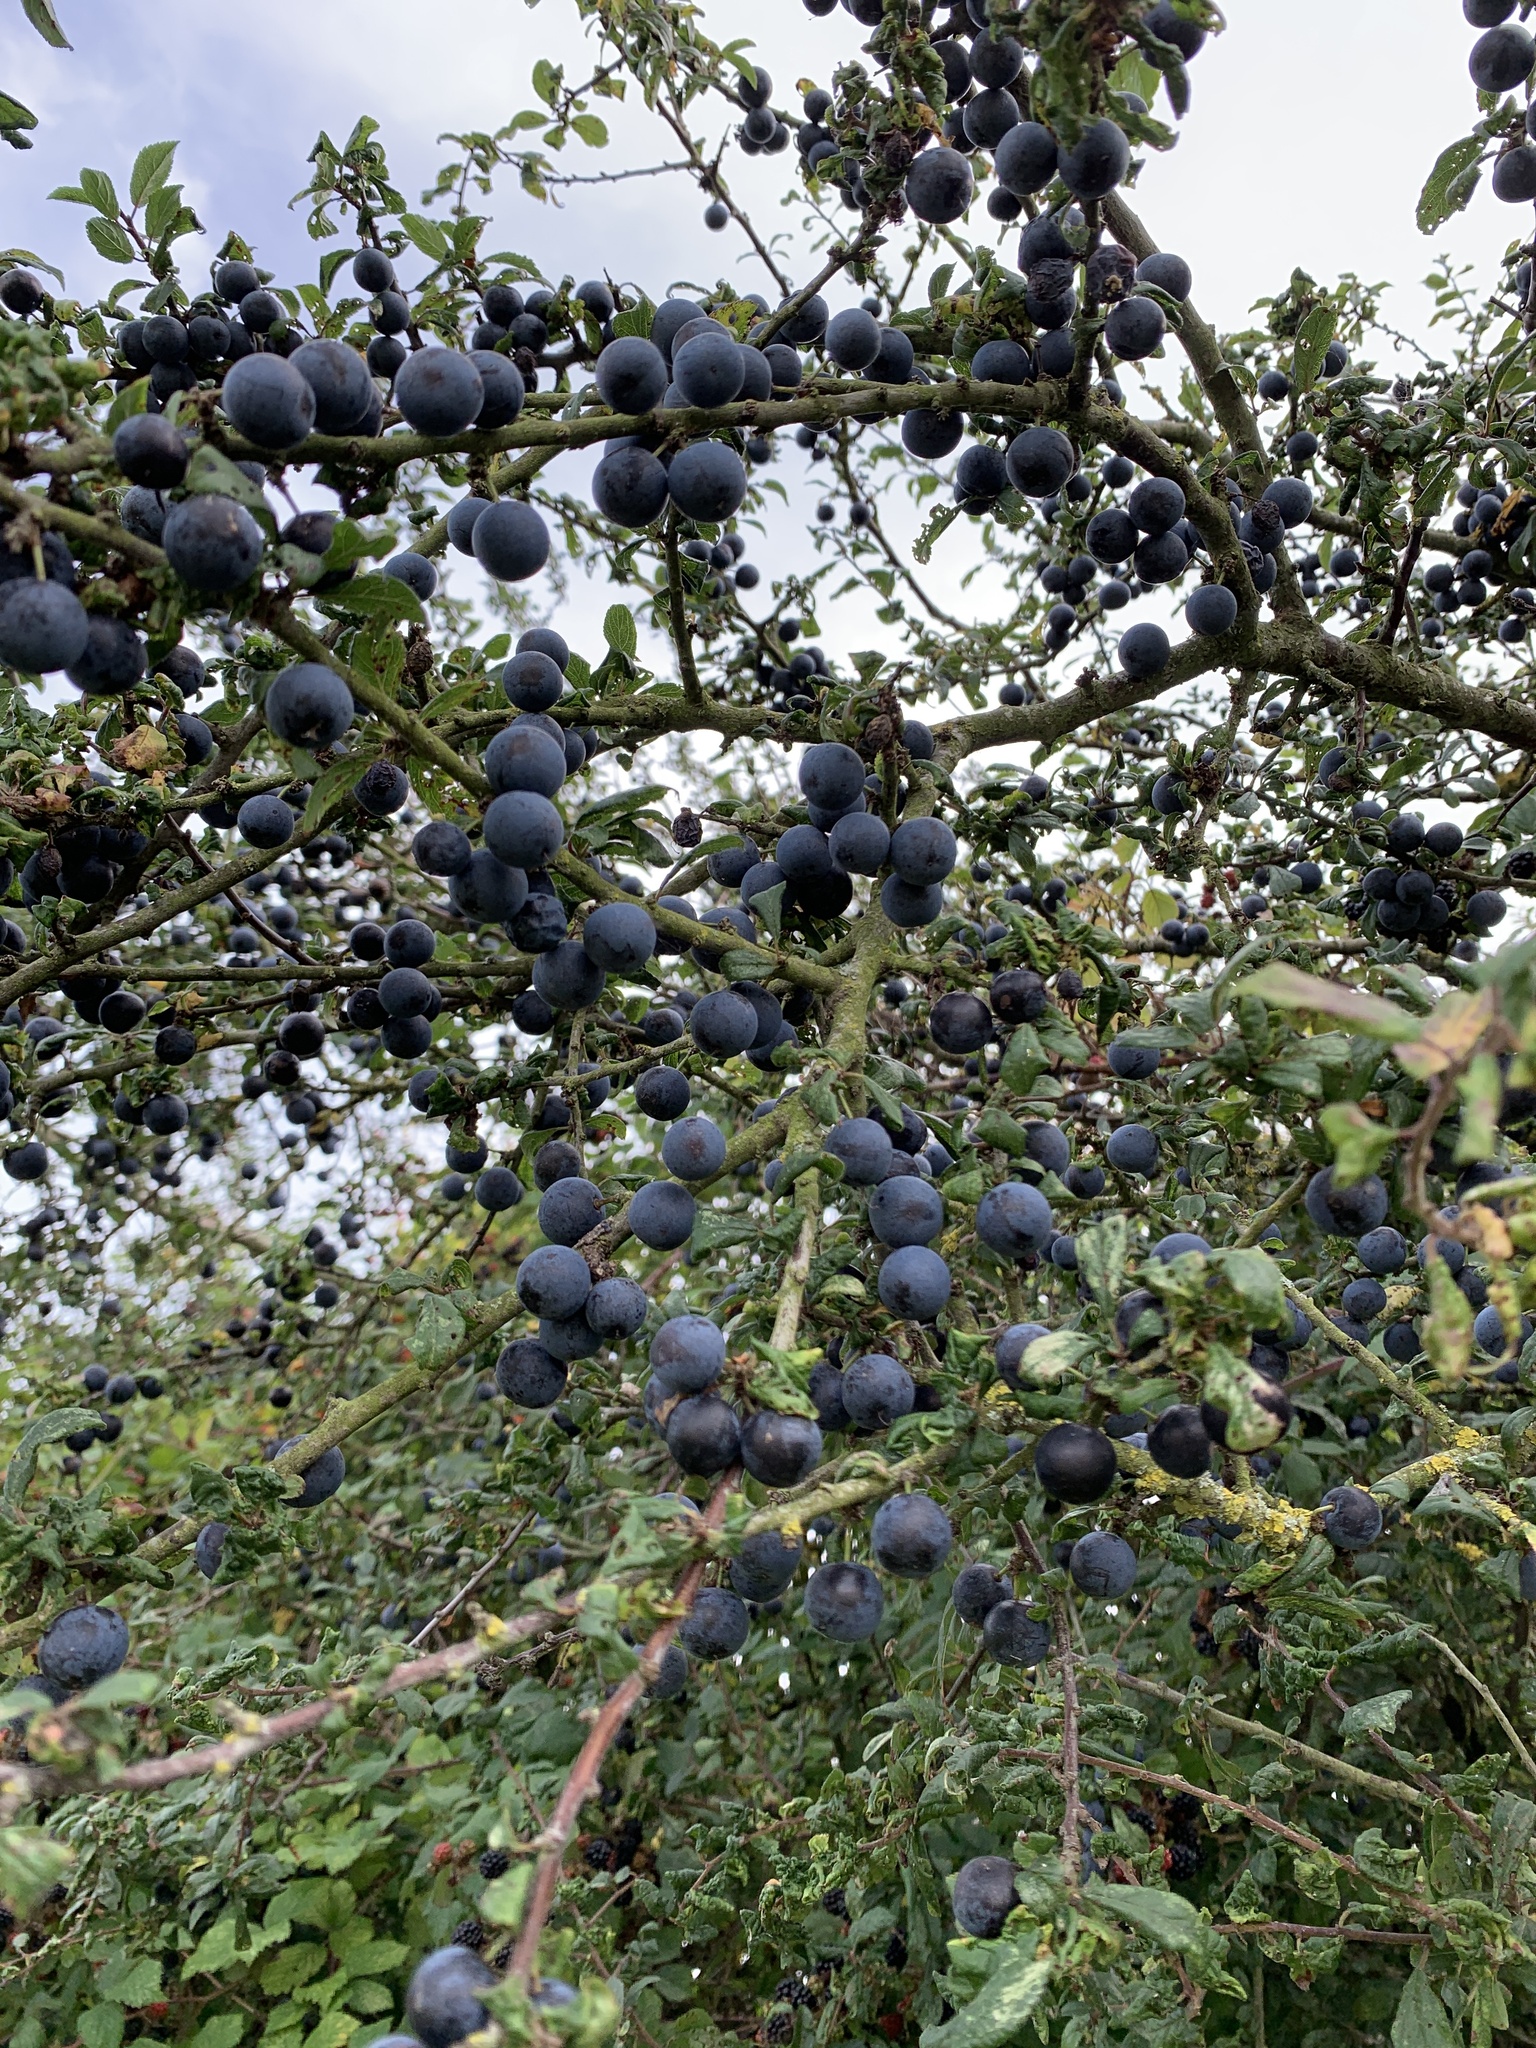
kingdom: Plantae
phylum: Tracheophyta
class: Magnoliopsida
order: Rosales
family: Rosaceae
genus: Prunus
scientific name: Prunus spinosa
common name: Blackthorn
